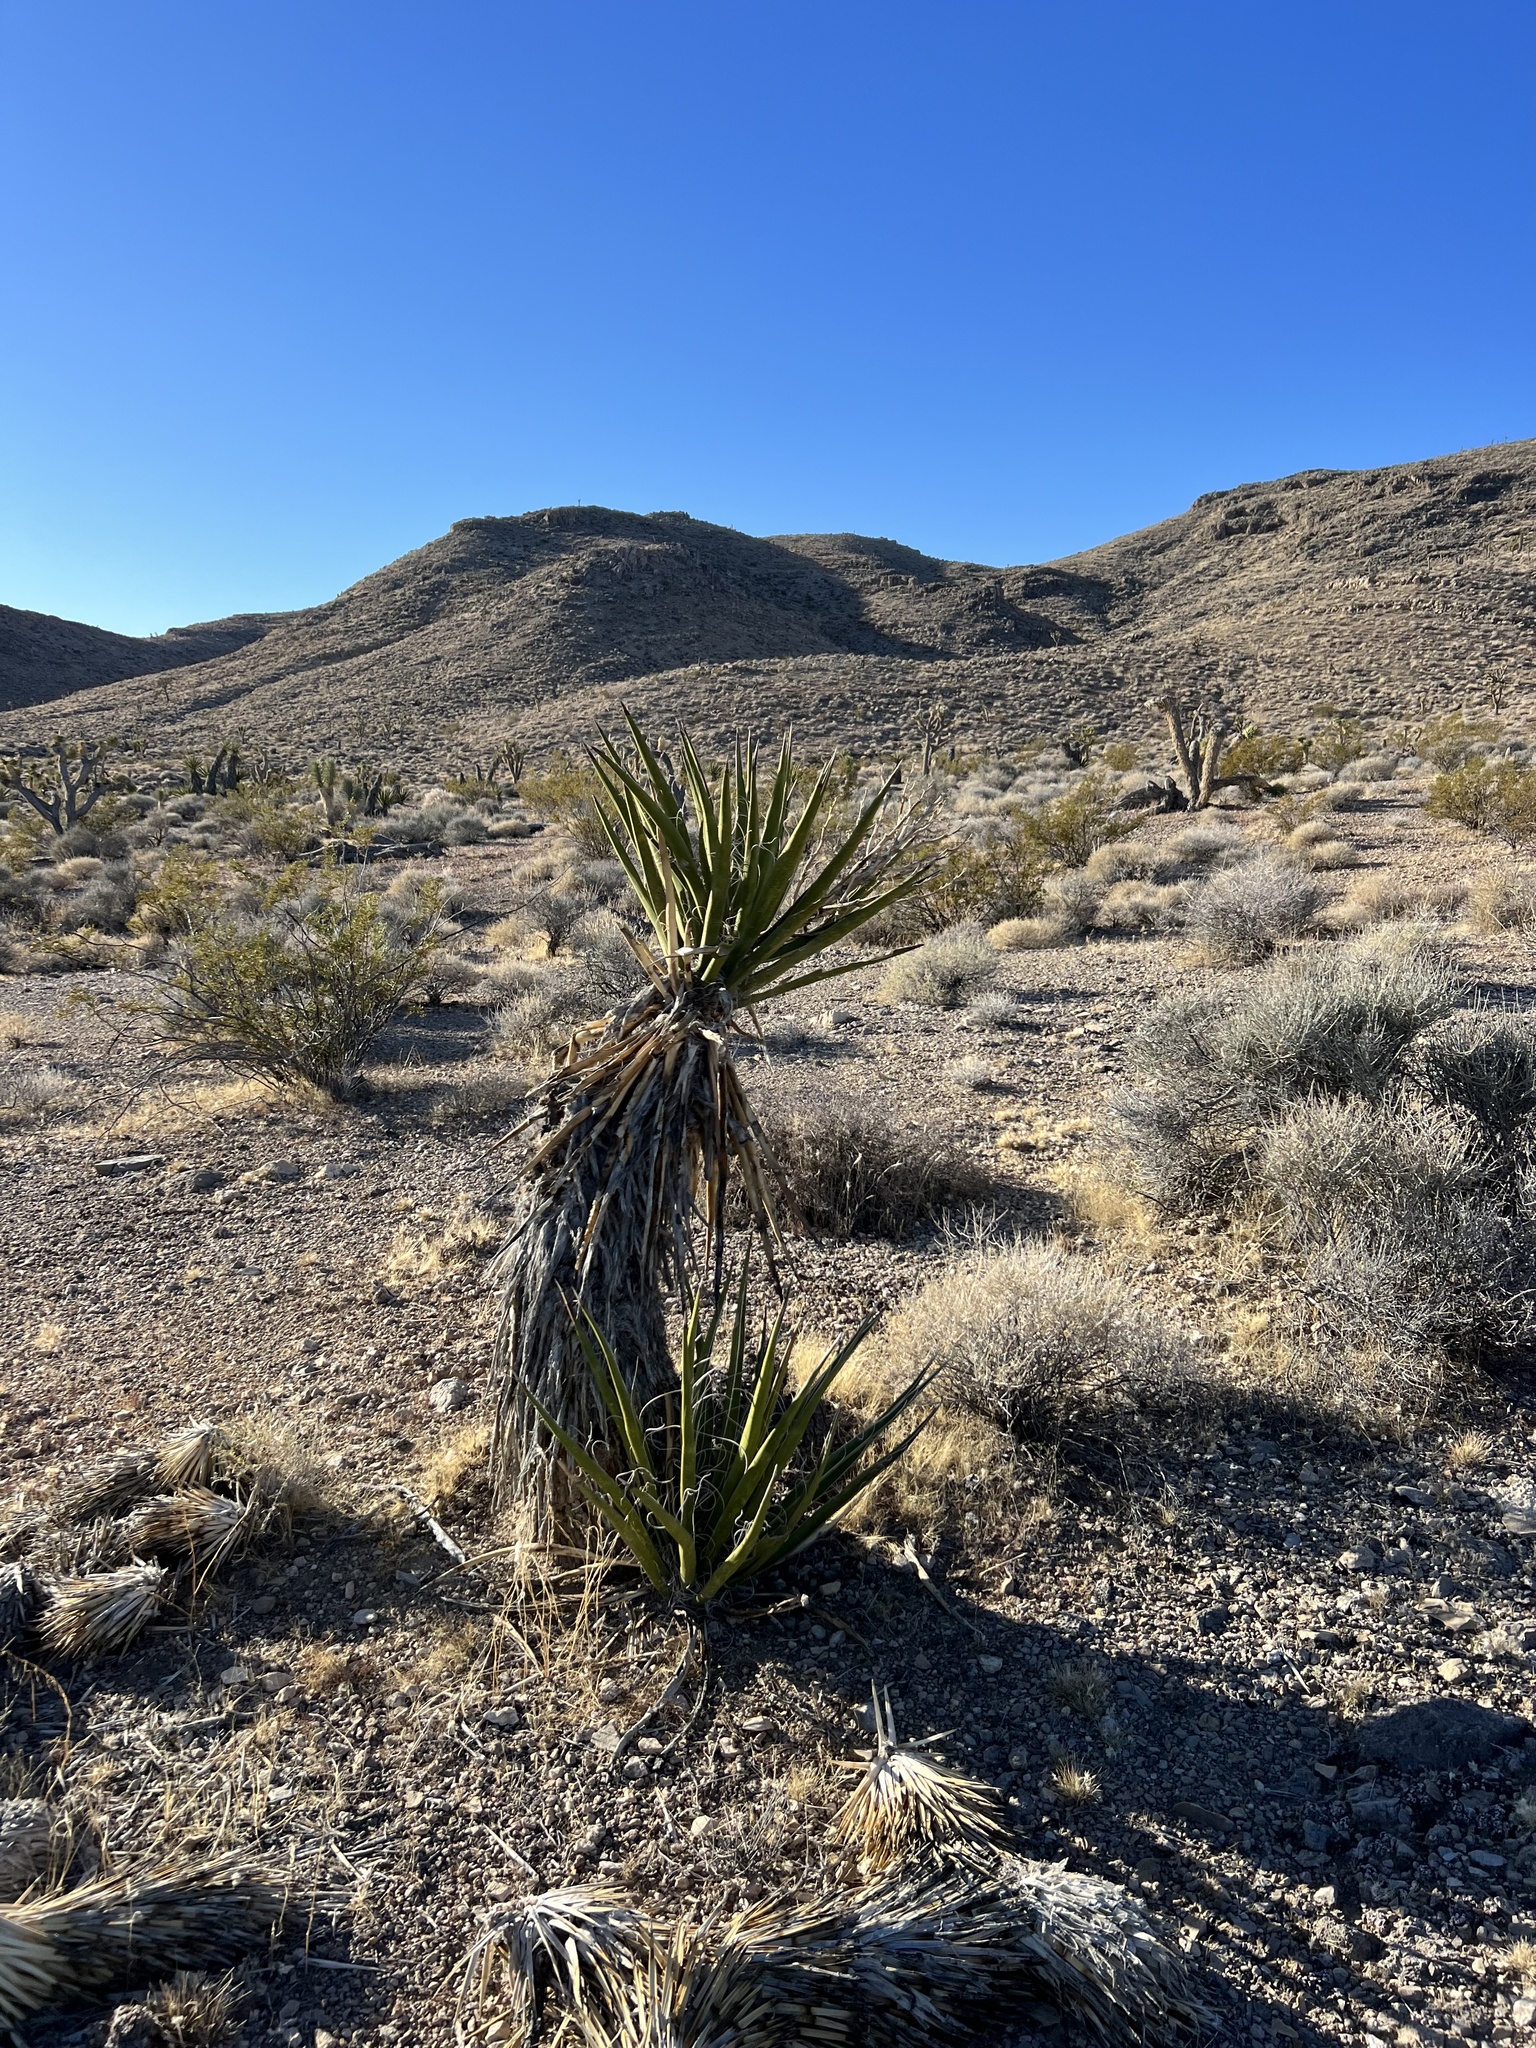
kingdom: Plantae
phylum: Tracheophyta
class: Liliopsida
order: Asparagales
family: Asparagaceae
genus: Yucca
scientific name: Yucca schidigera
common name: Mojave yucca
